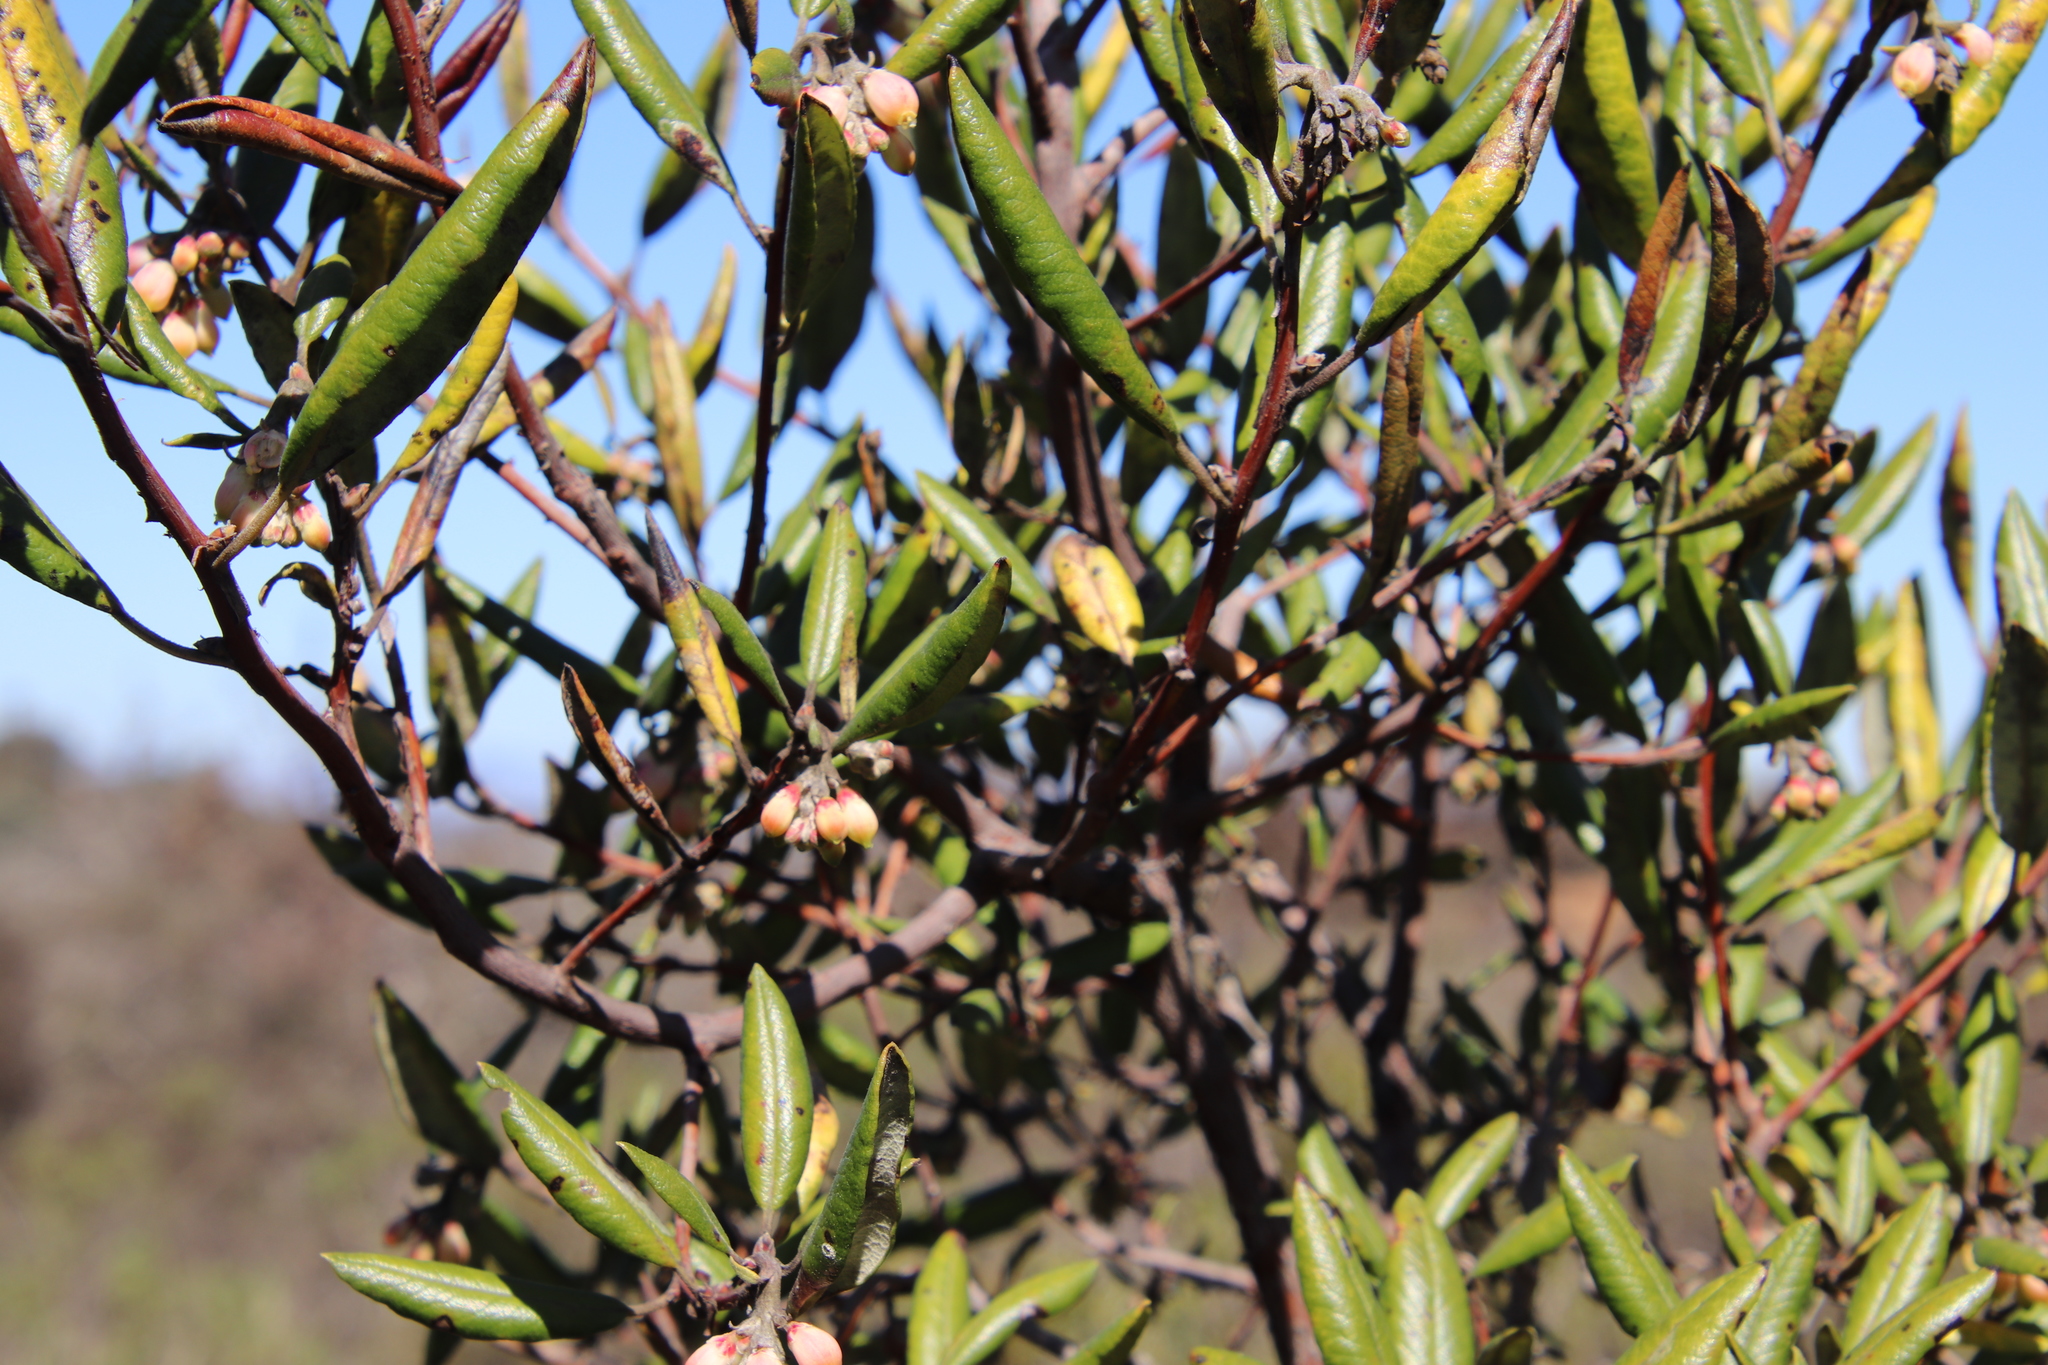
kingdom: Plantae
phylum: Tracheophyta
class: Magnoliopsida
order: Ericales
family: Ericaceae
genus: Arctostaphylos
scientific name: Arctostaphylos bicolor
